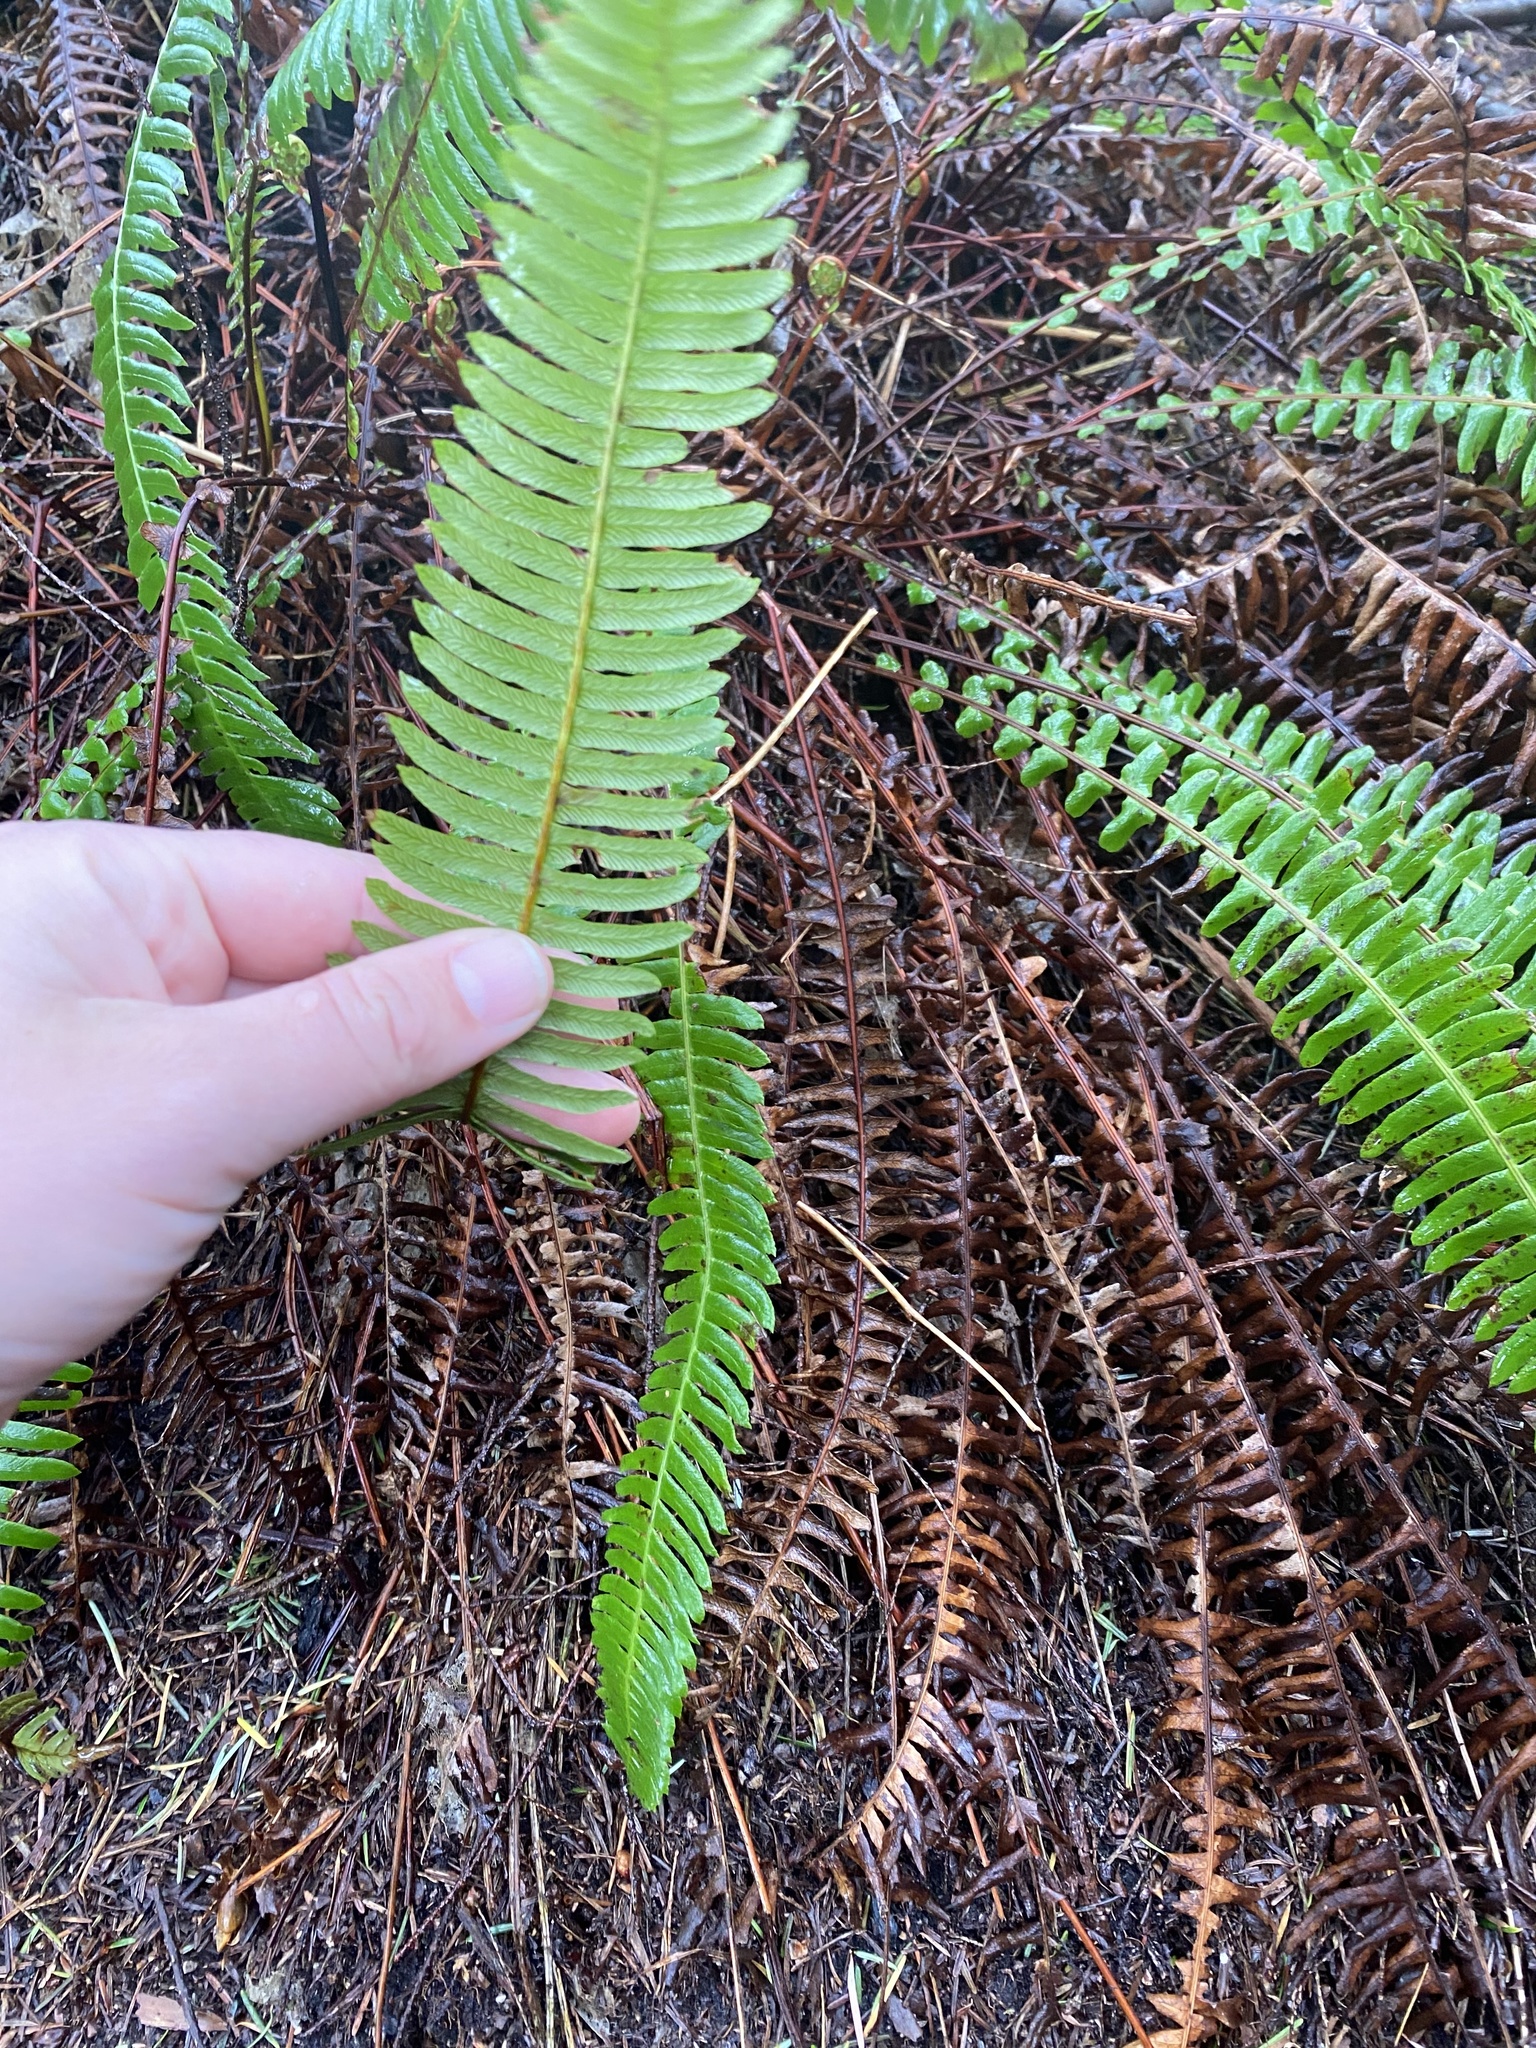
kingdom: Plantae
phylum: Tracheophyta
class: Polypodiopsida
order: Polypodiales
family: Blechnaceae
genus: Struthiopteris
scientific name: Struthiopteris spicant
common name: Deer fern
